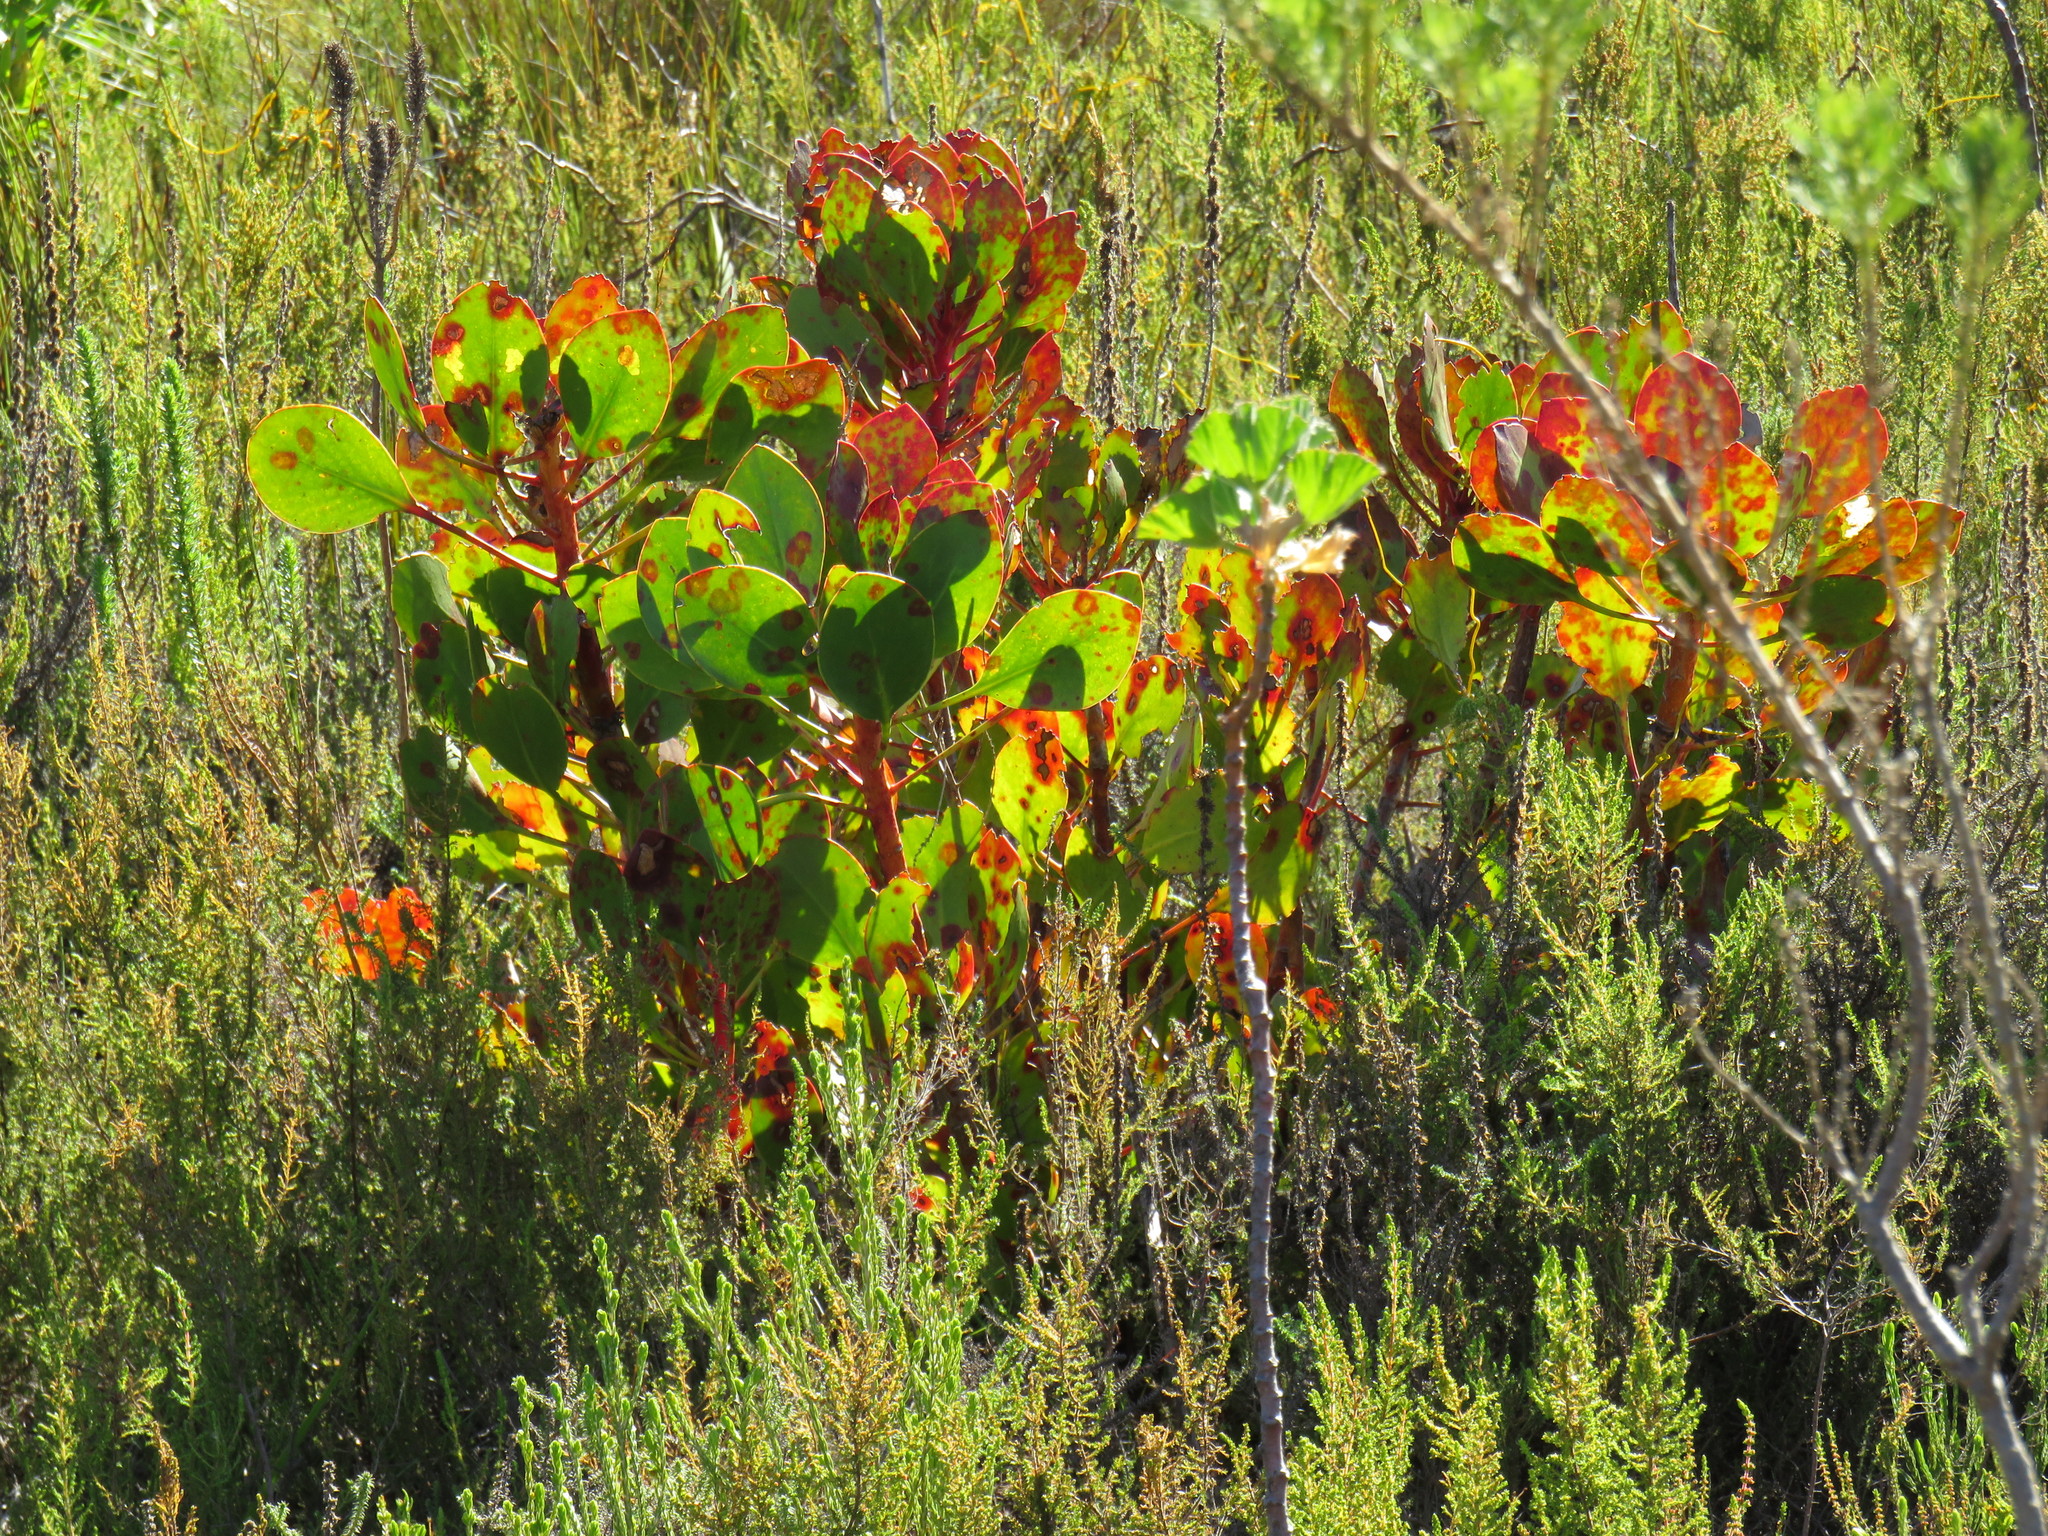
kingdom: Plantae
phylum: Tracheophyta
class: Magnoliopsida
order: Proteales
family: Proteaceae
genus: Protea
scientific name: Protea cynaroides
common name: King protea
